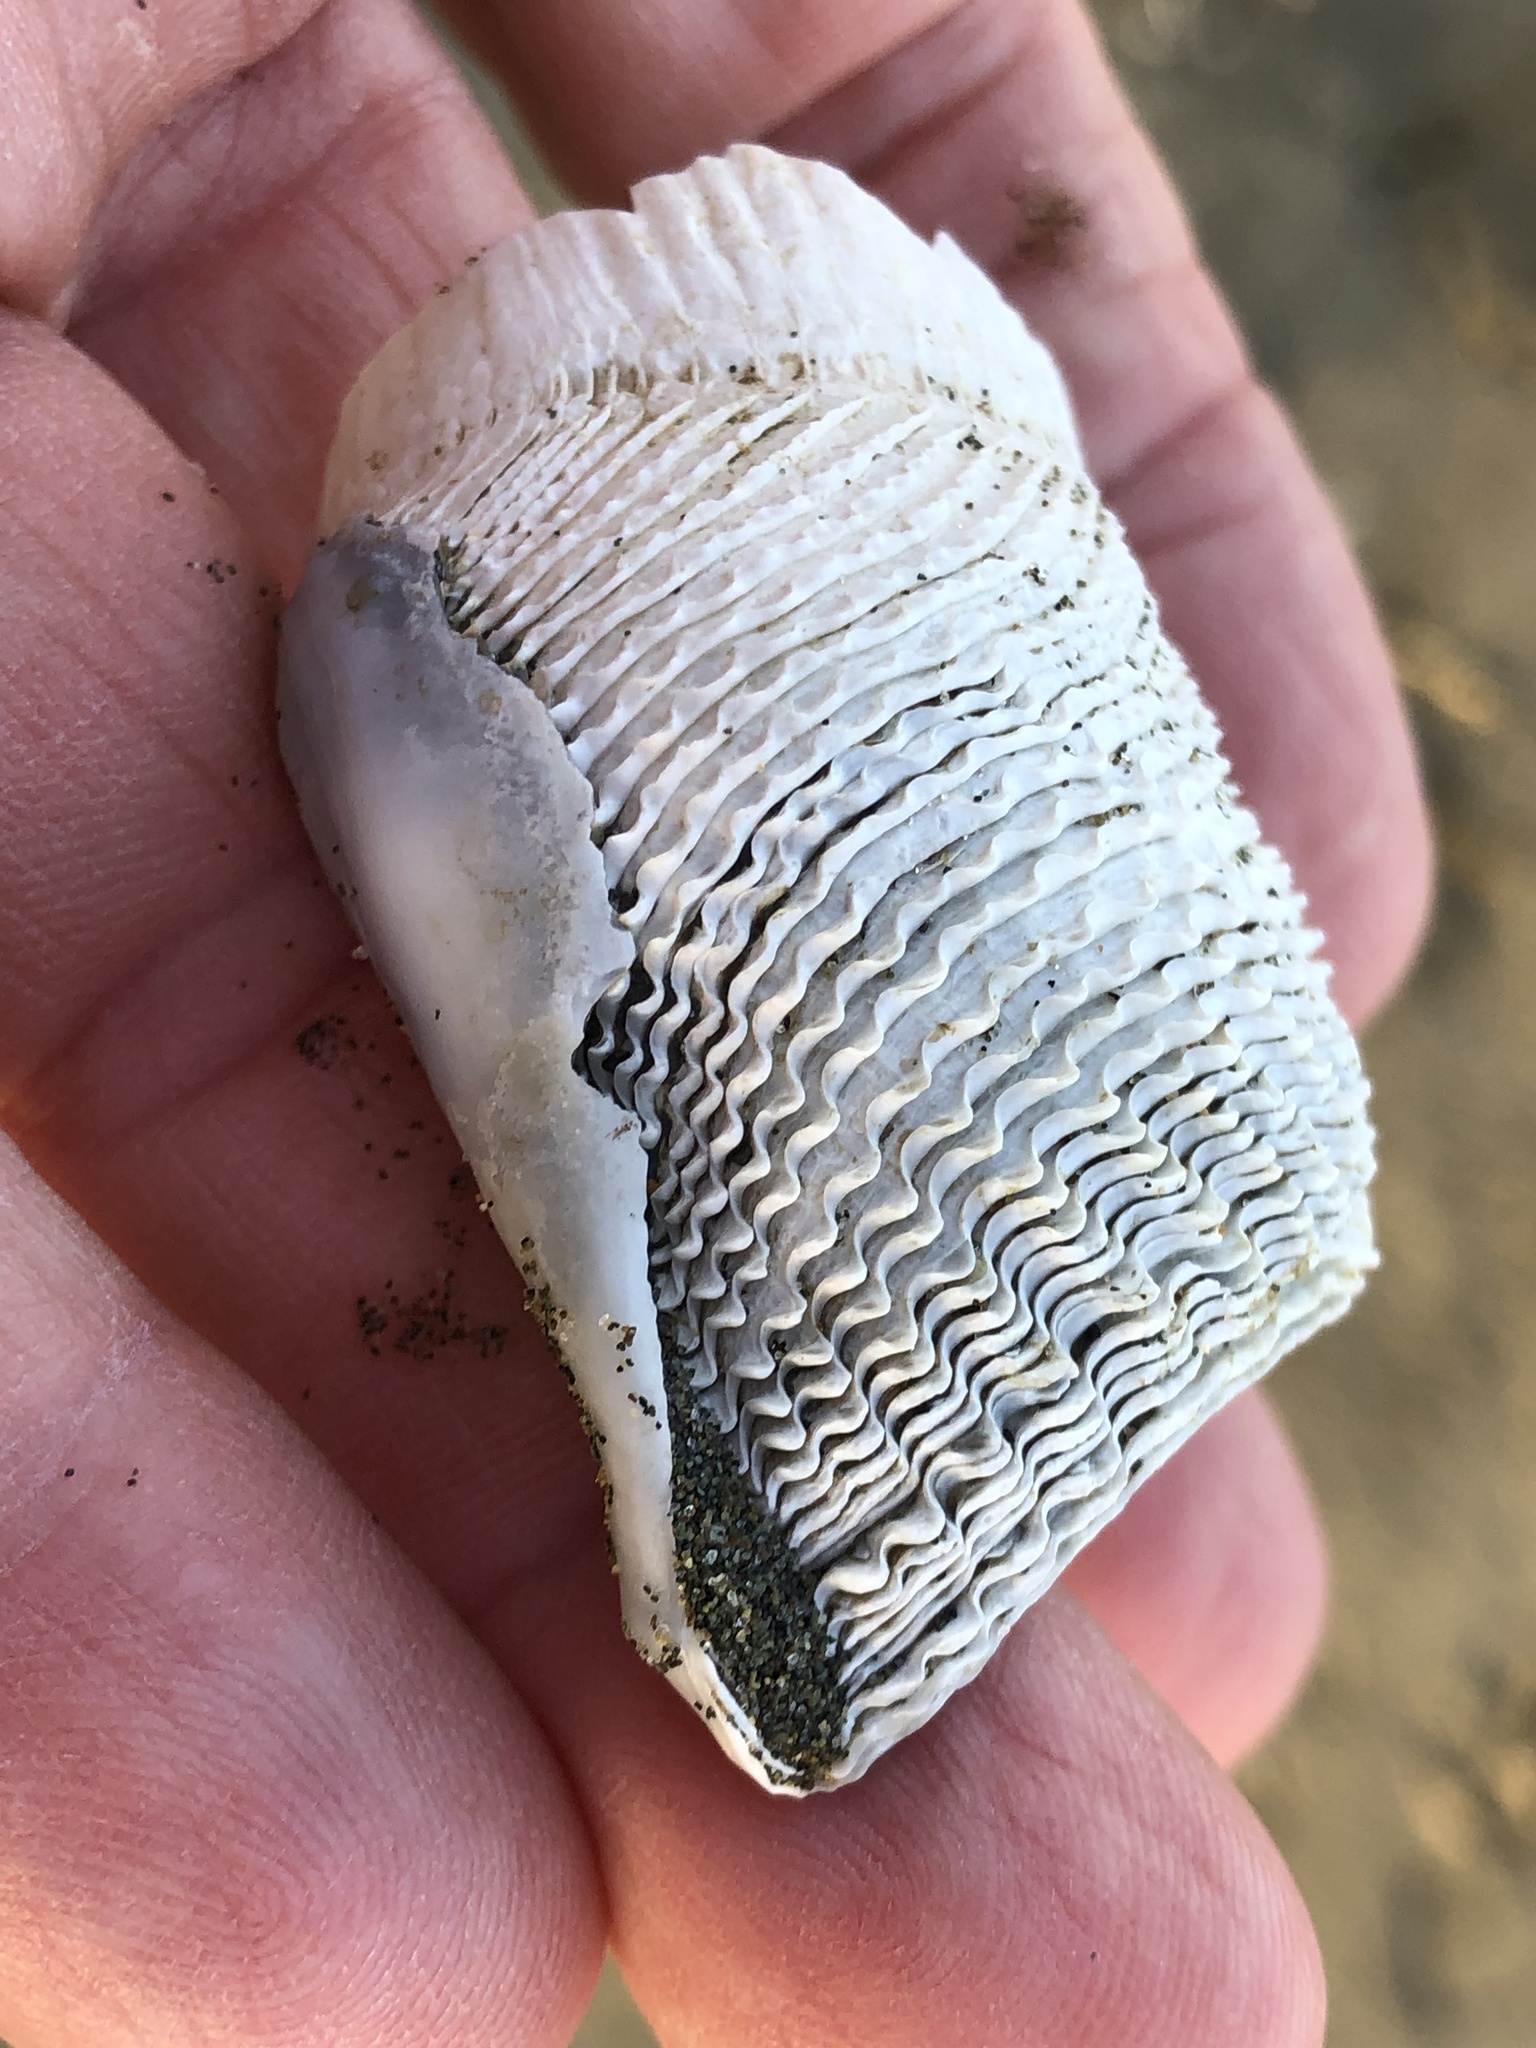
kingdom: Animalia
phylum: Mollusca
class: Bivalvia
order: Myida
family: Pholadidae
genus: Zirfaea
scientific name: Zirfaea pilsbryi
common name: Rough piddock
